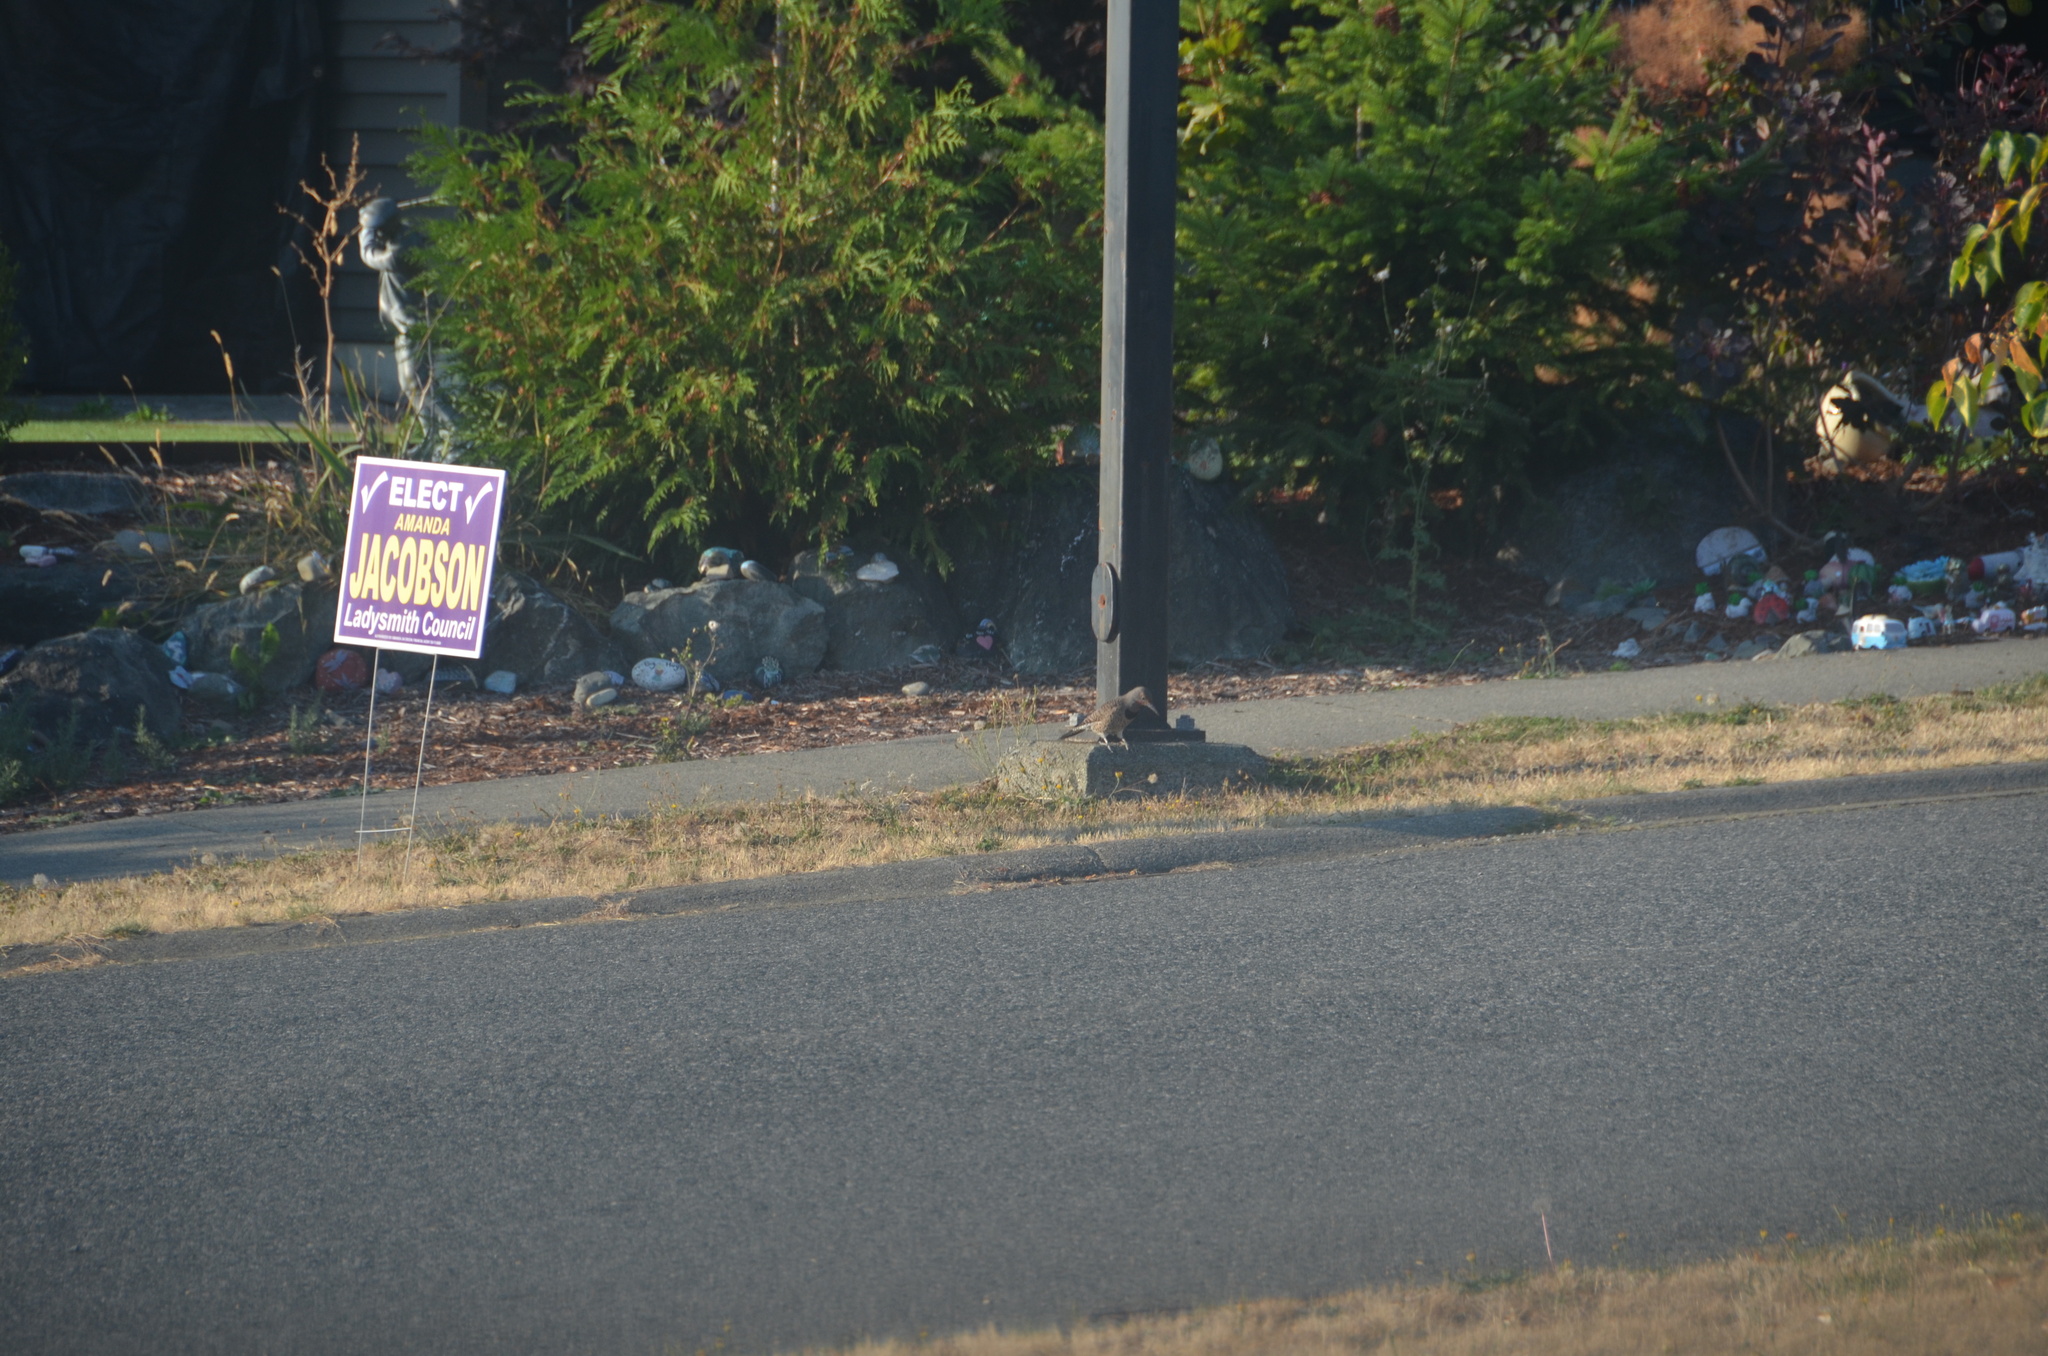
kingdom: Animalia
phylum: Chordata
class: Aves
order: Piciformes
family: Picidae
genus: Colaptes
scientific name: Colaptes auratus
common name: Northern flicker
